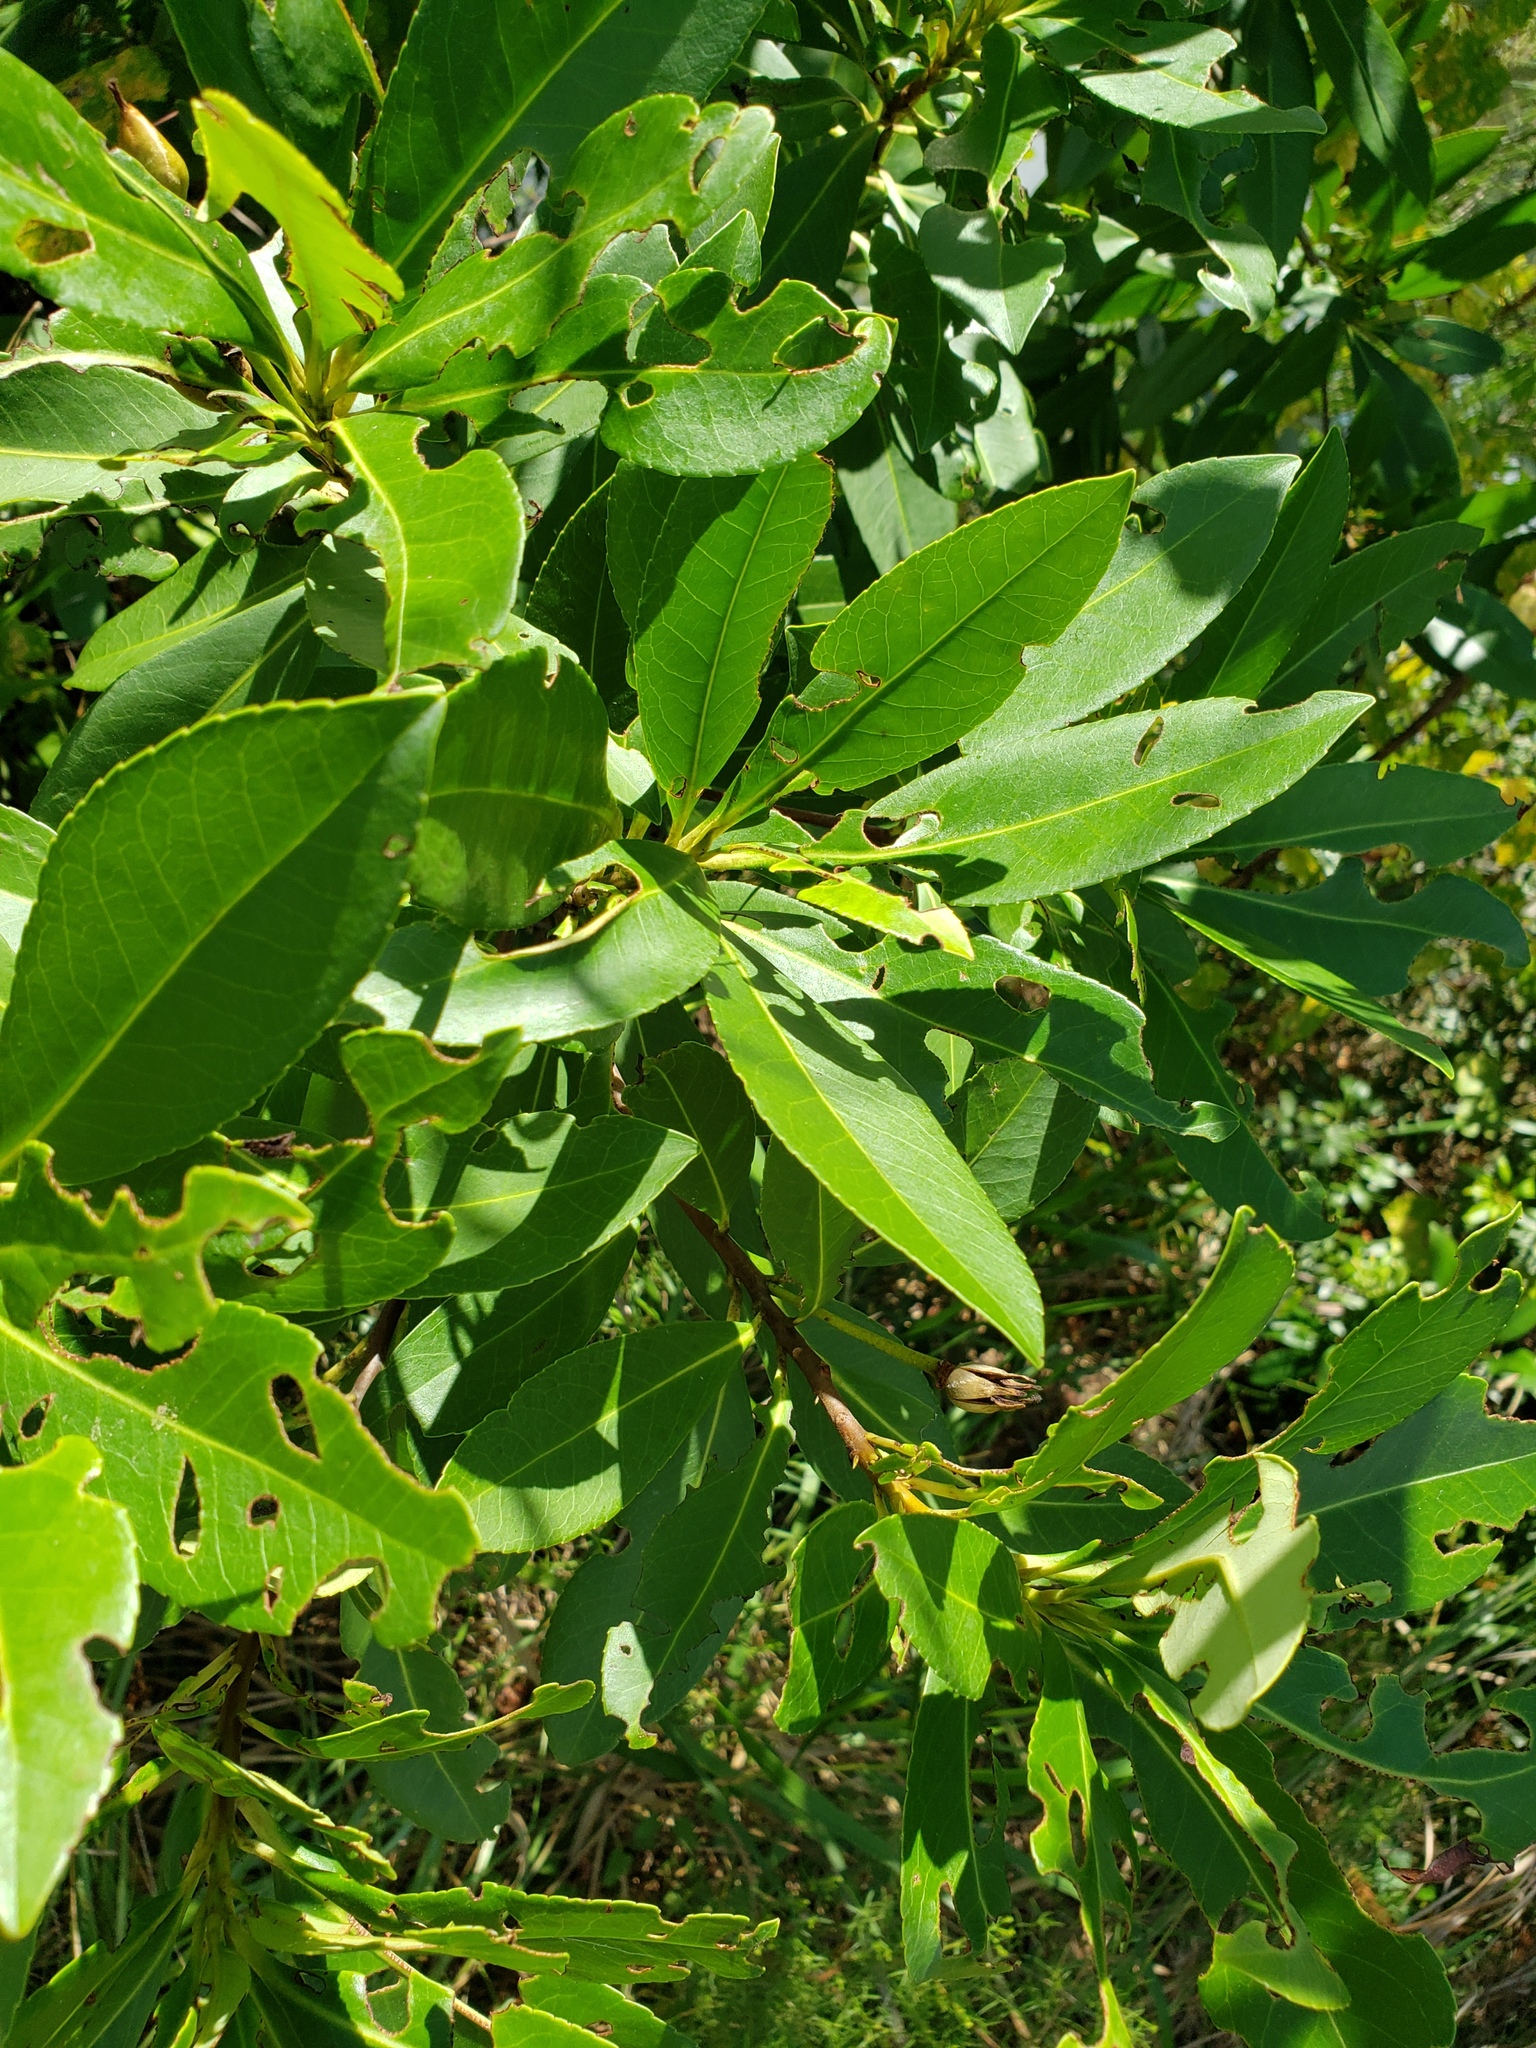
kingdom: Plantae
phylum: Tracheophyta
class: Magnoliopsida
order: Ericales
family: Theaceae
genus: Gordonia
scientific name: Gordonia lasianthus
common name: Loblolly bay
